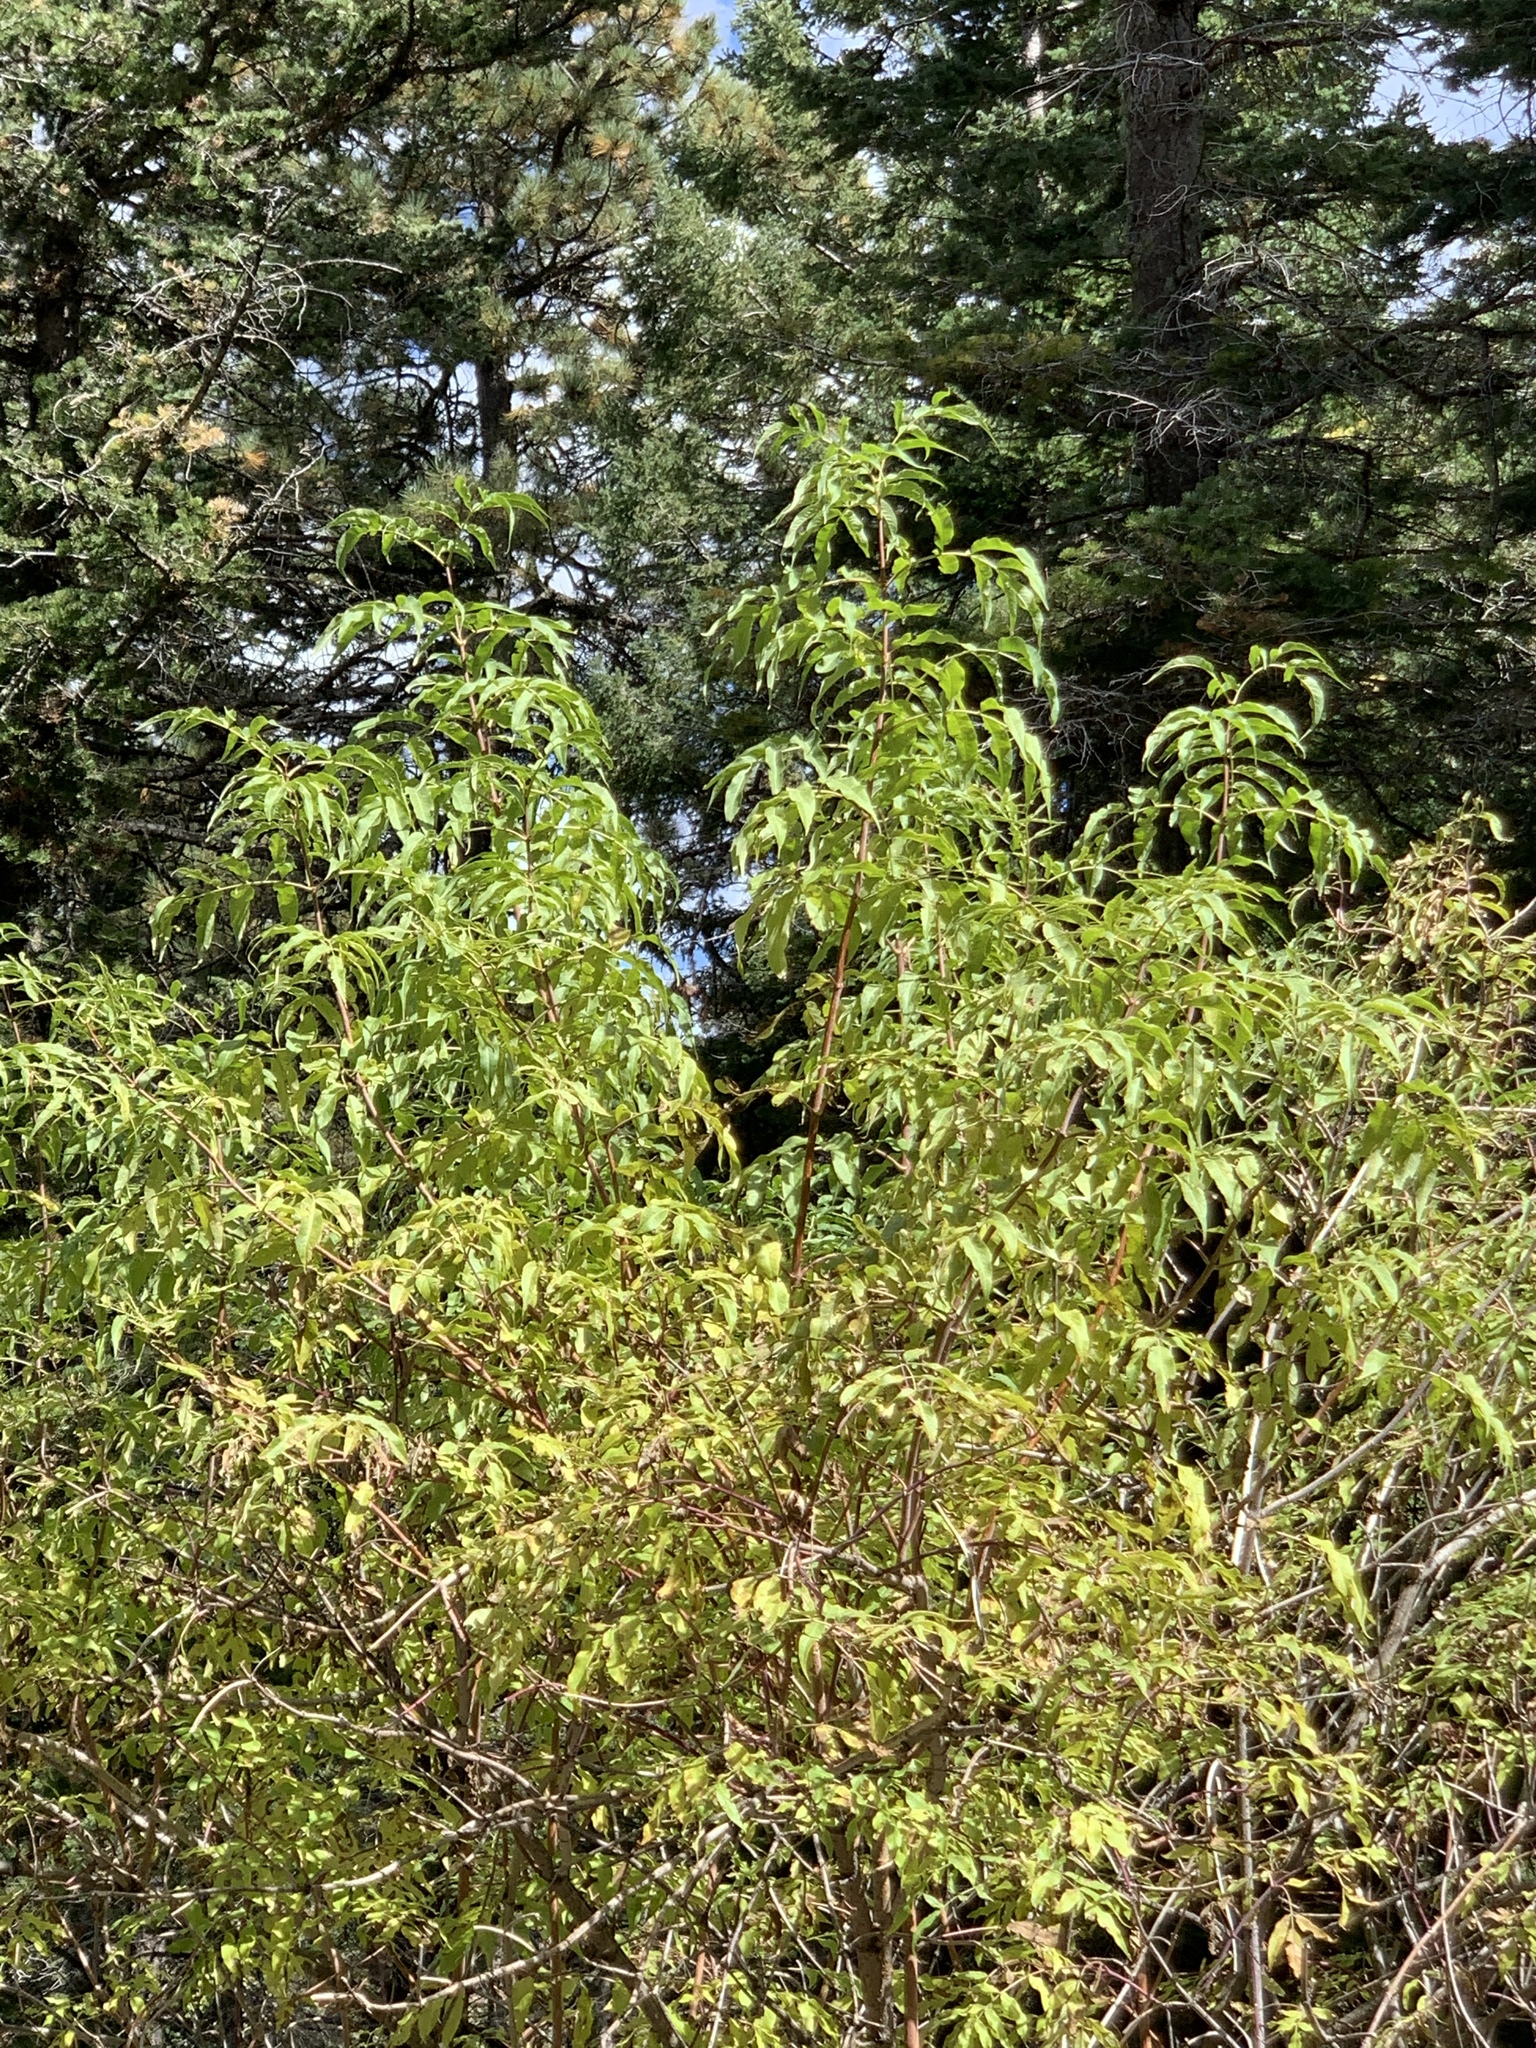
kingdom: Plantae
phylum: Tracheophyta
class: Magnoliopsida
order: Dipsacales
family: Viburnaceae
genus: Sambucus
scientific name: Sambucus cerulea
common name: Blue elder
